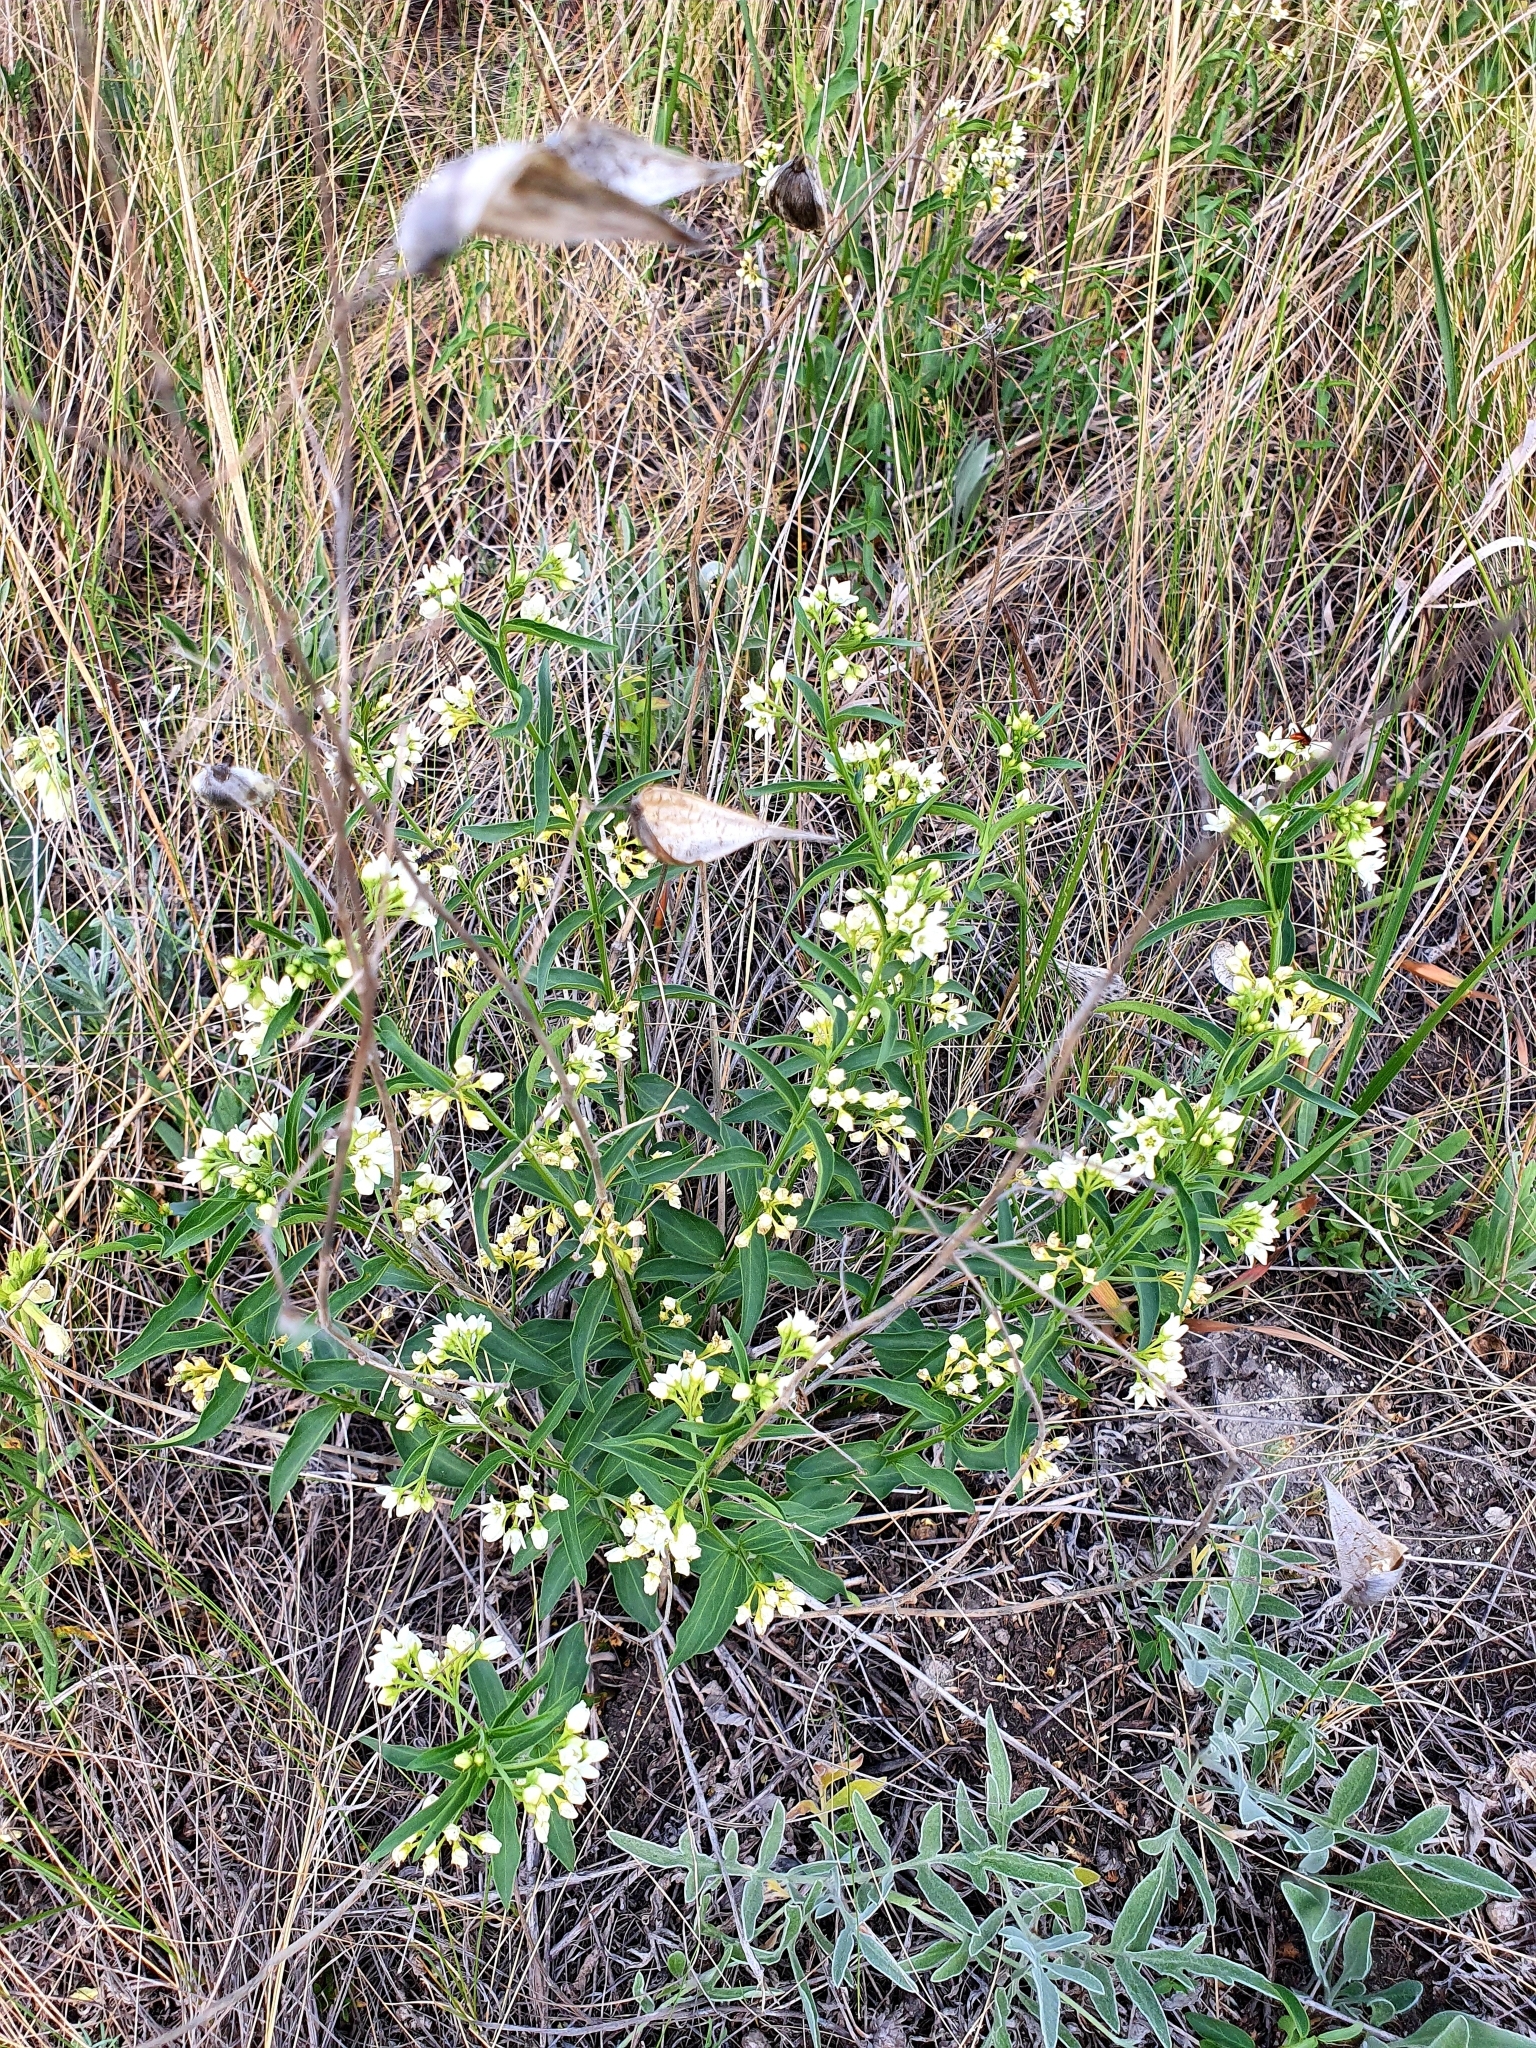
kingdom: Plantae
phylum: Tracheophyta
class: Magnoliopsida
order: Gentianales
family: Apocynaceae
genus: Vincetoxicum
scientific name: Vincetoxicum hirundinaria
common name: White swallowwort
